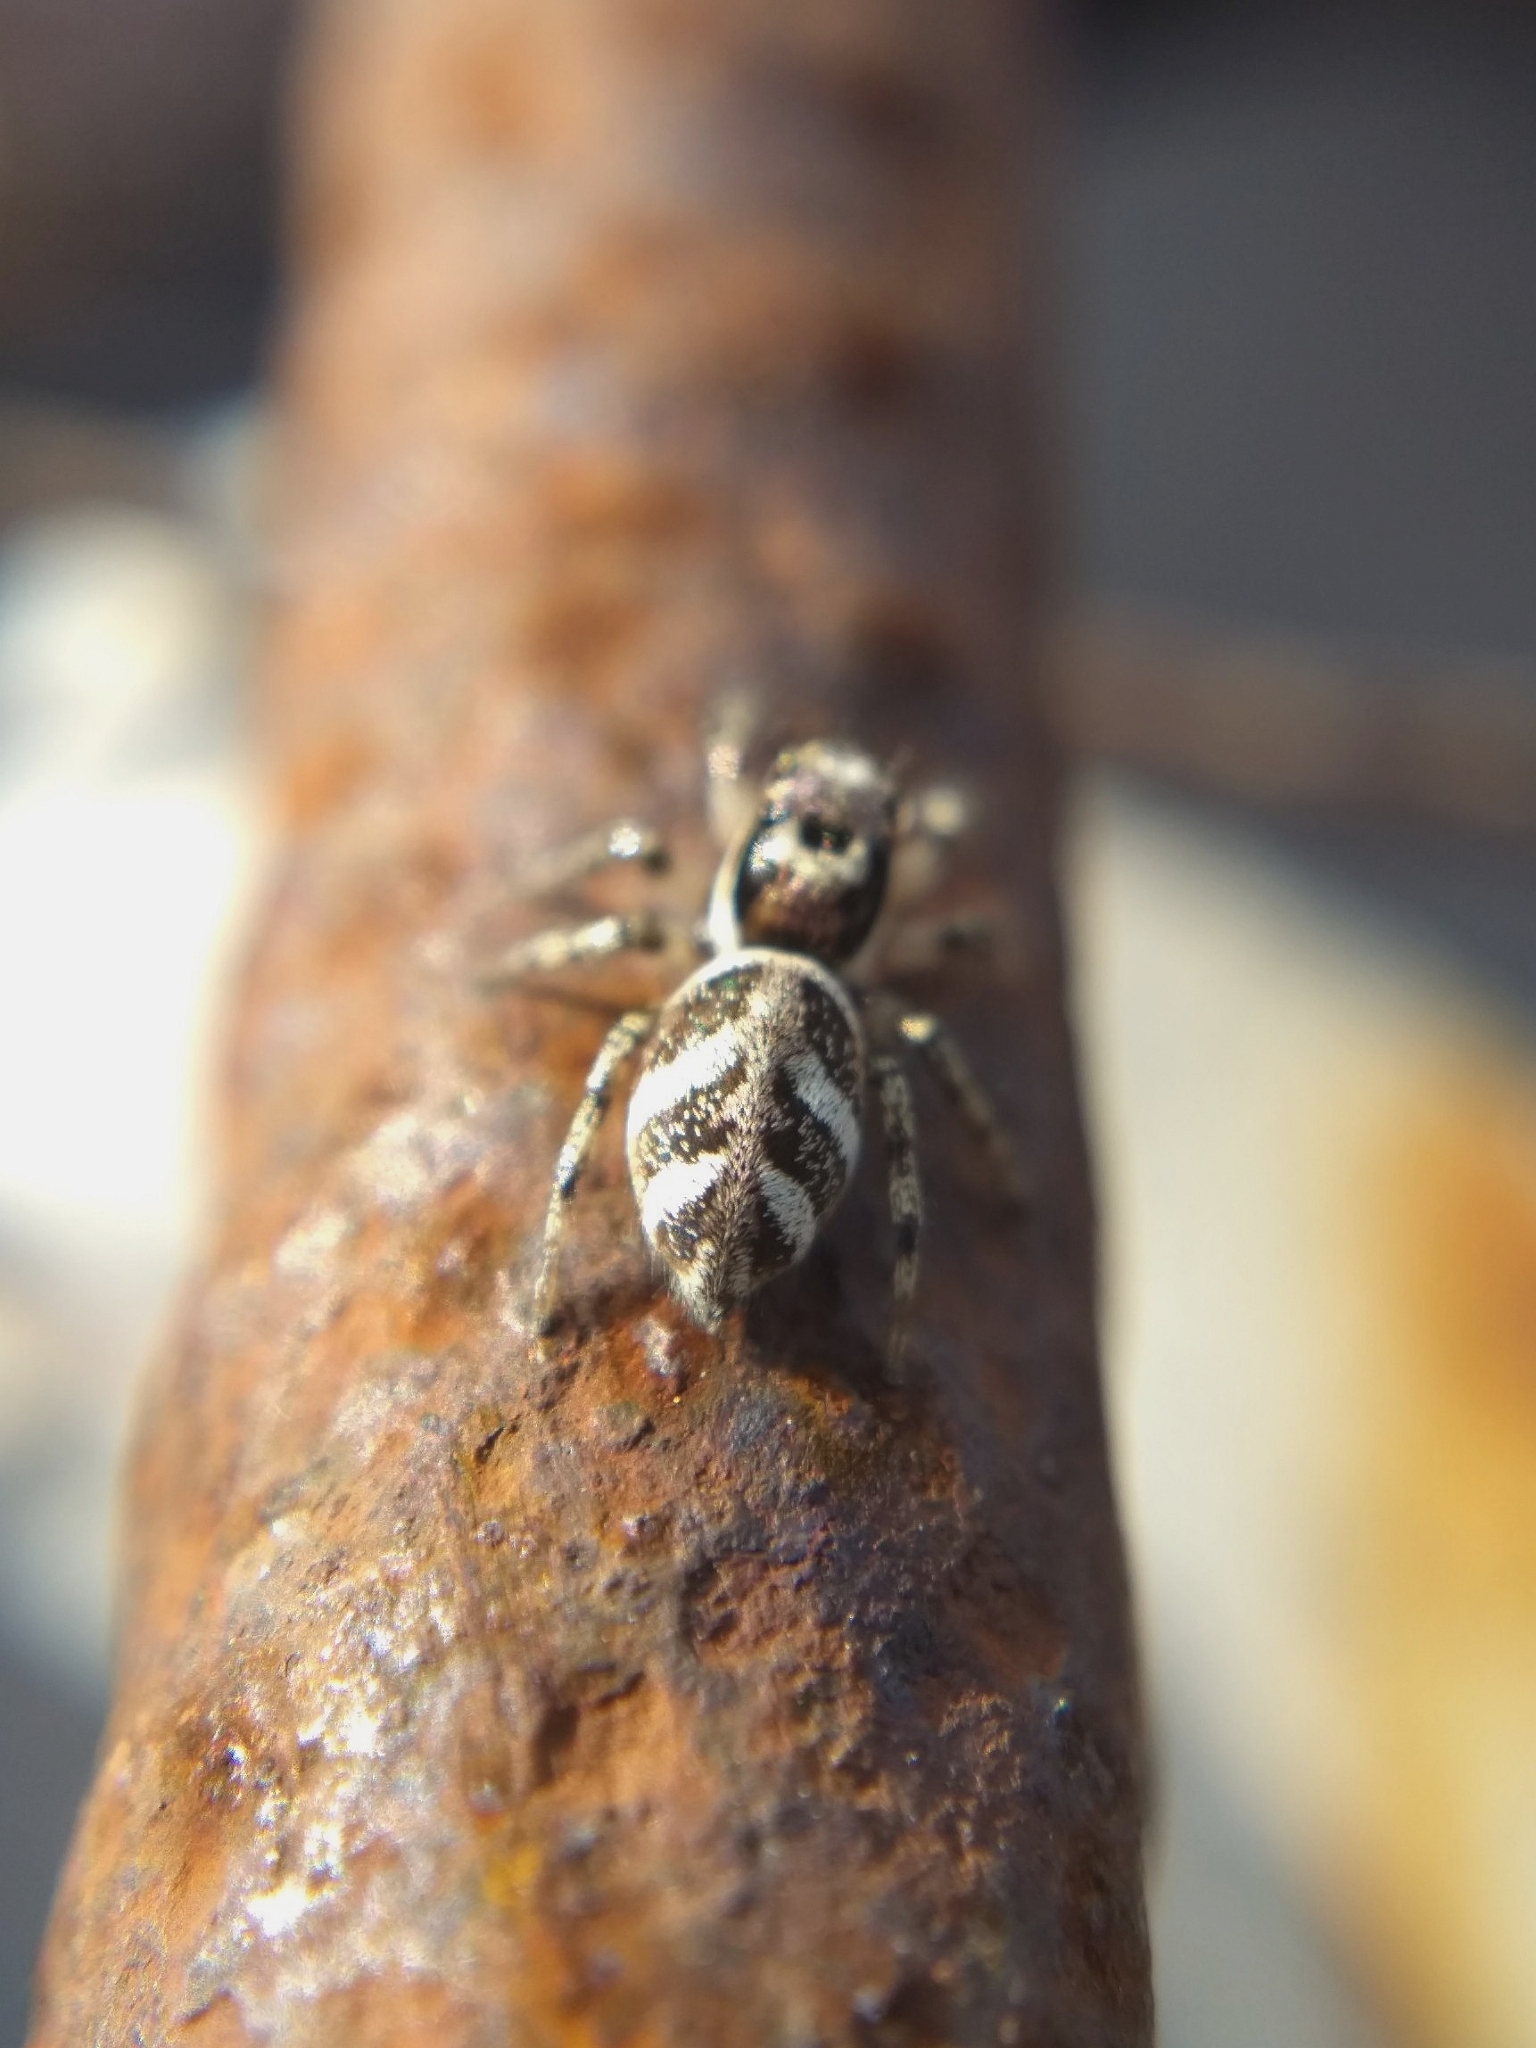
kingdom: Animalia
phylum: Arthropoda
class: Arachnida
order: Araneae
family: Salticidae
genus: Salticus
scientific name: Salticus scenicus
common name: Zebra jumper
